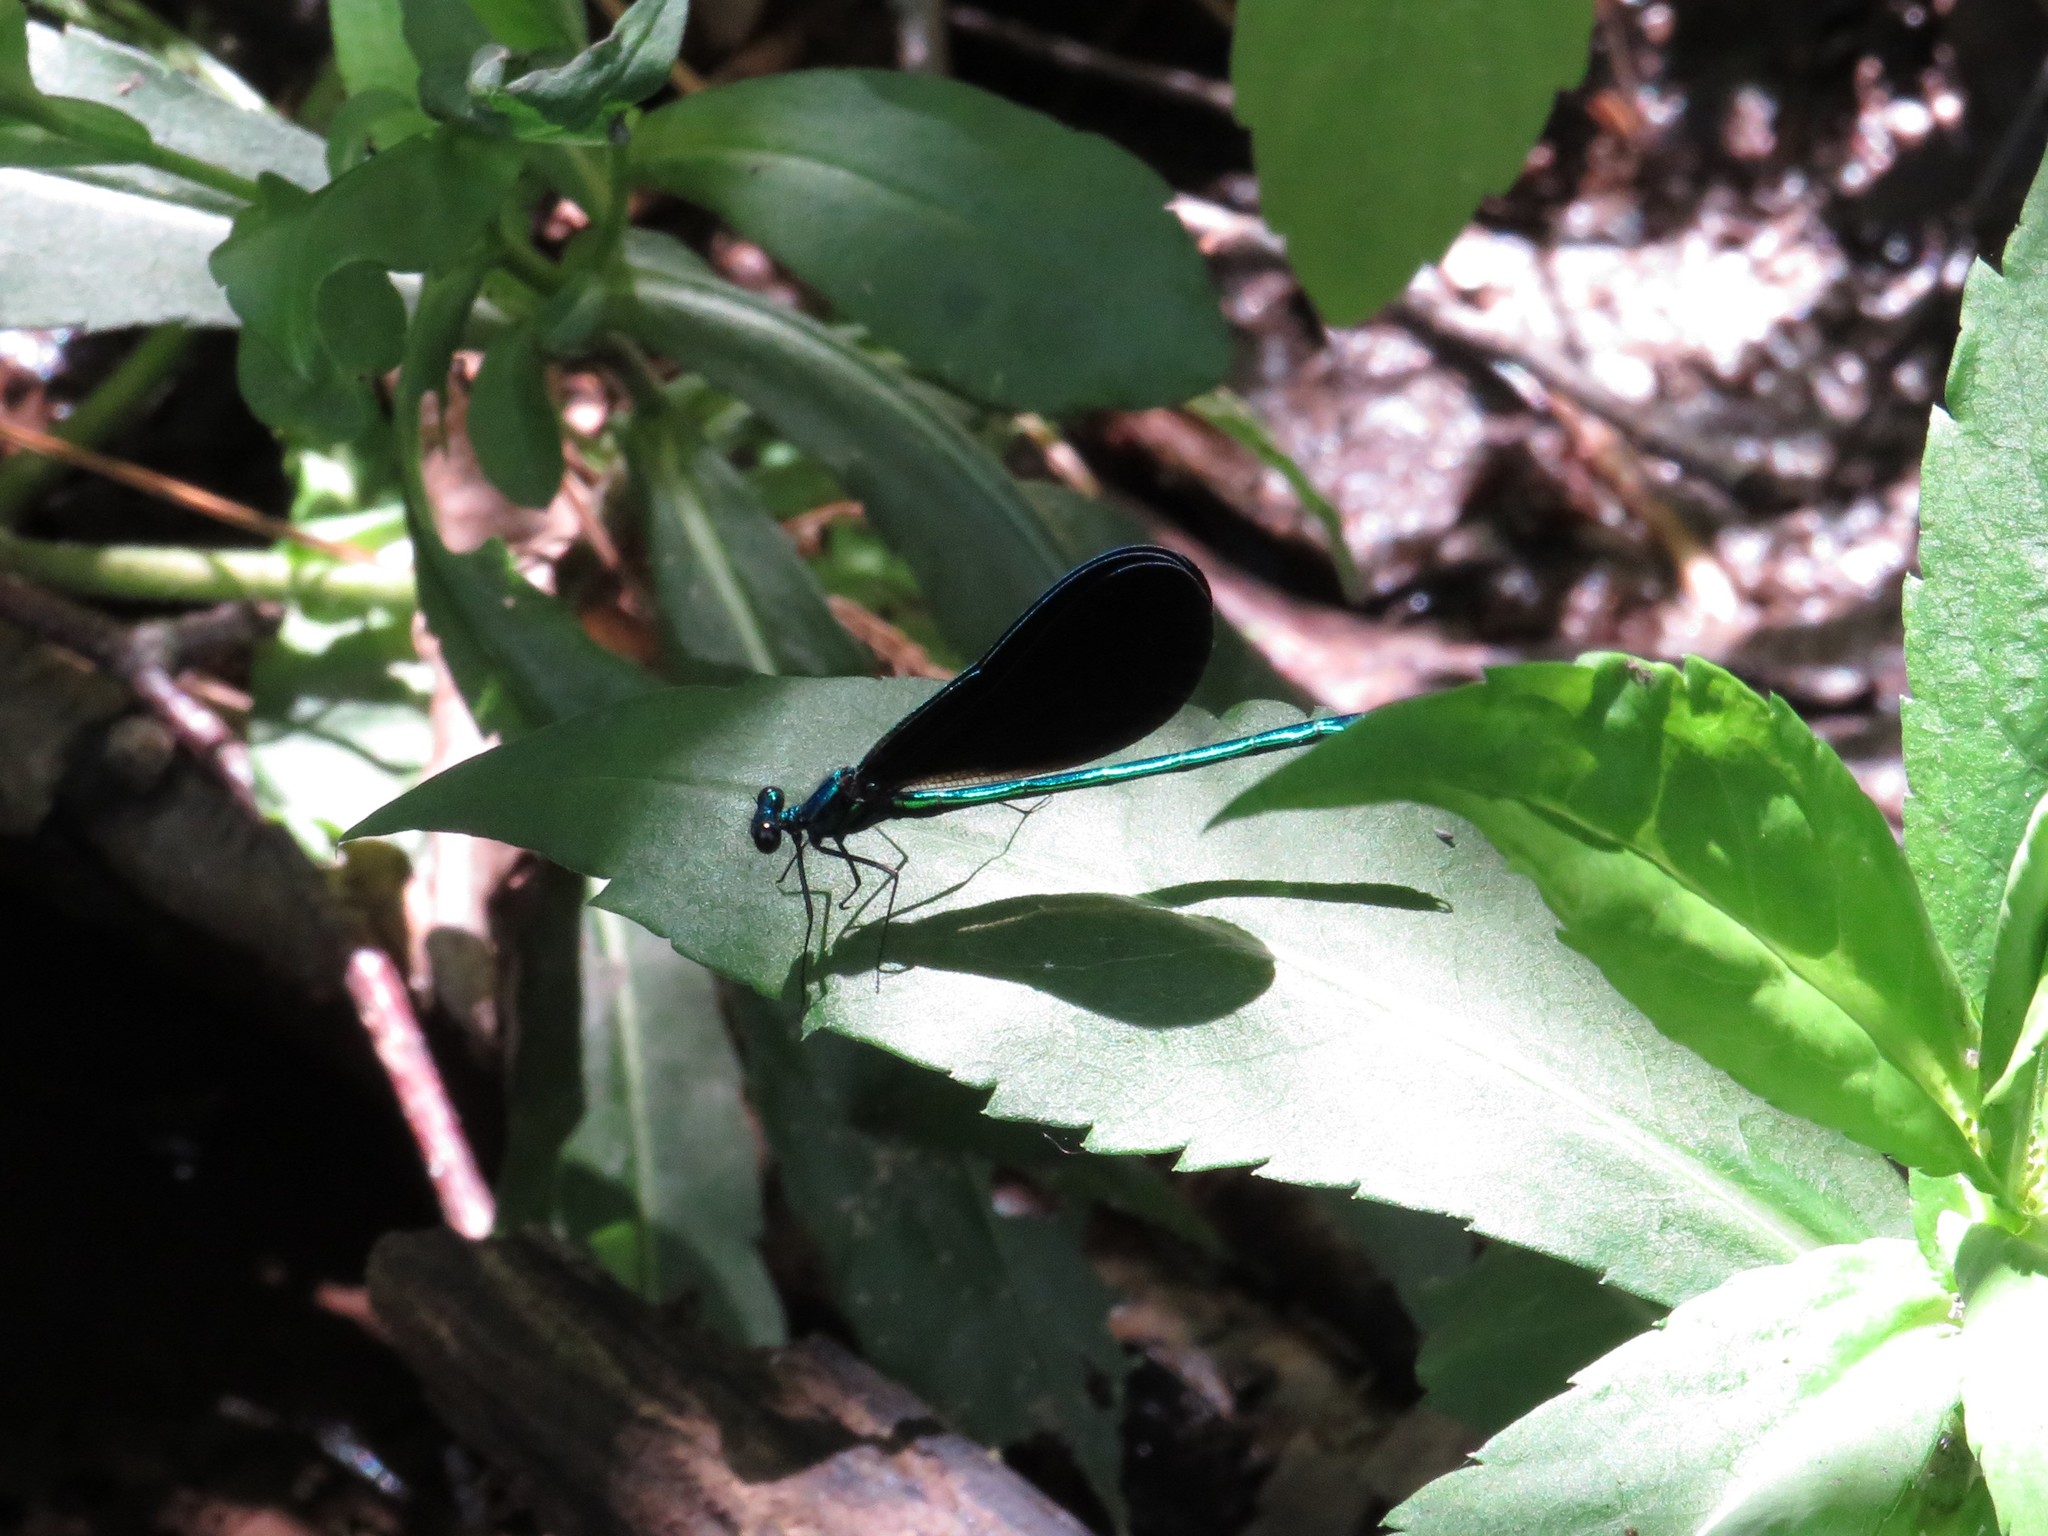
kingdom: Animalia
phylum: Arthropoda
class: Insecta
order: Odonata
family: Calopterygidae
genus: Calopteryx
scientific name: Calopteryx maculata
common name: Ebony jewelwing
